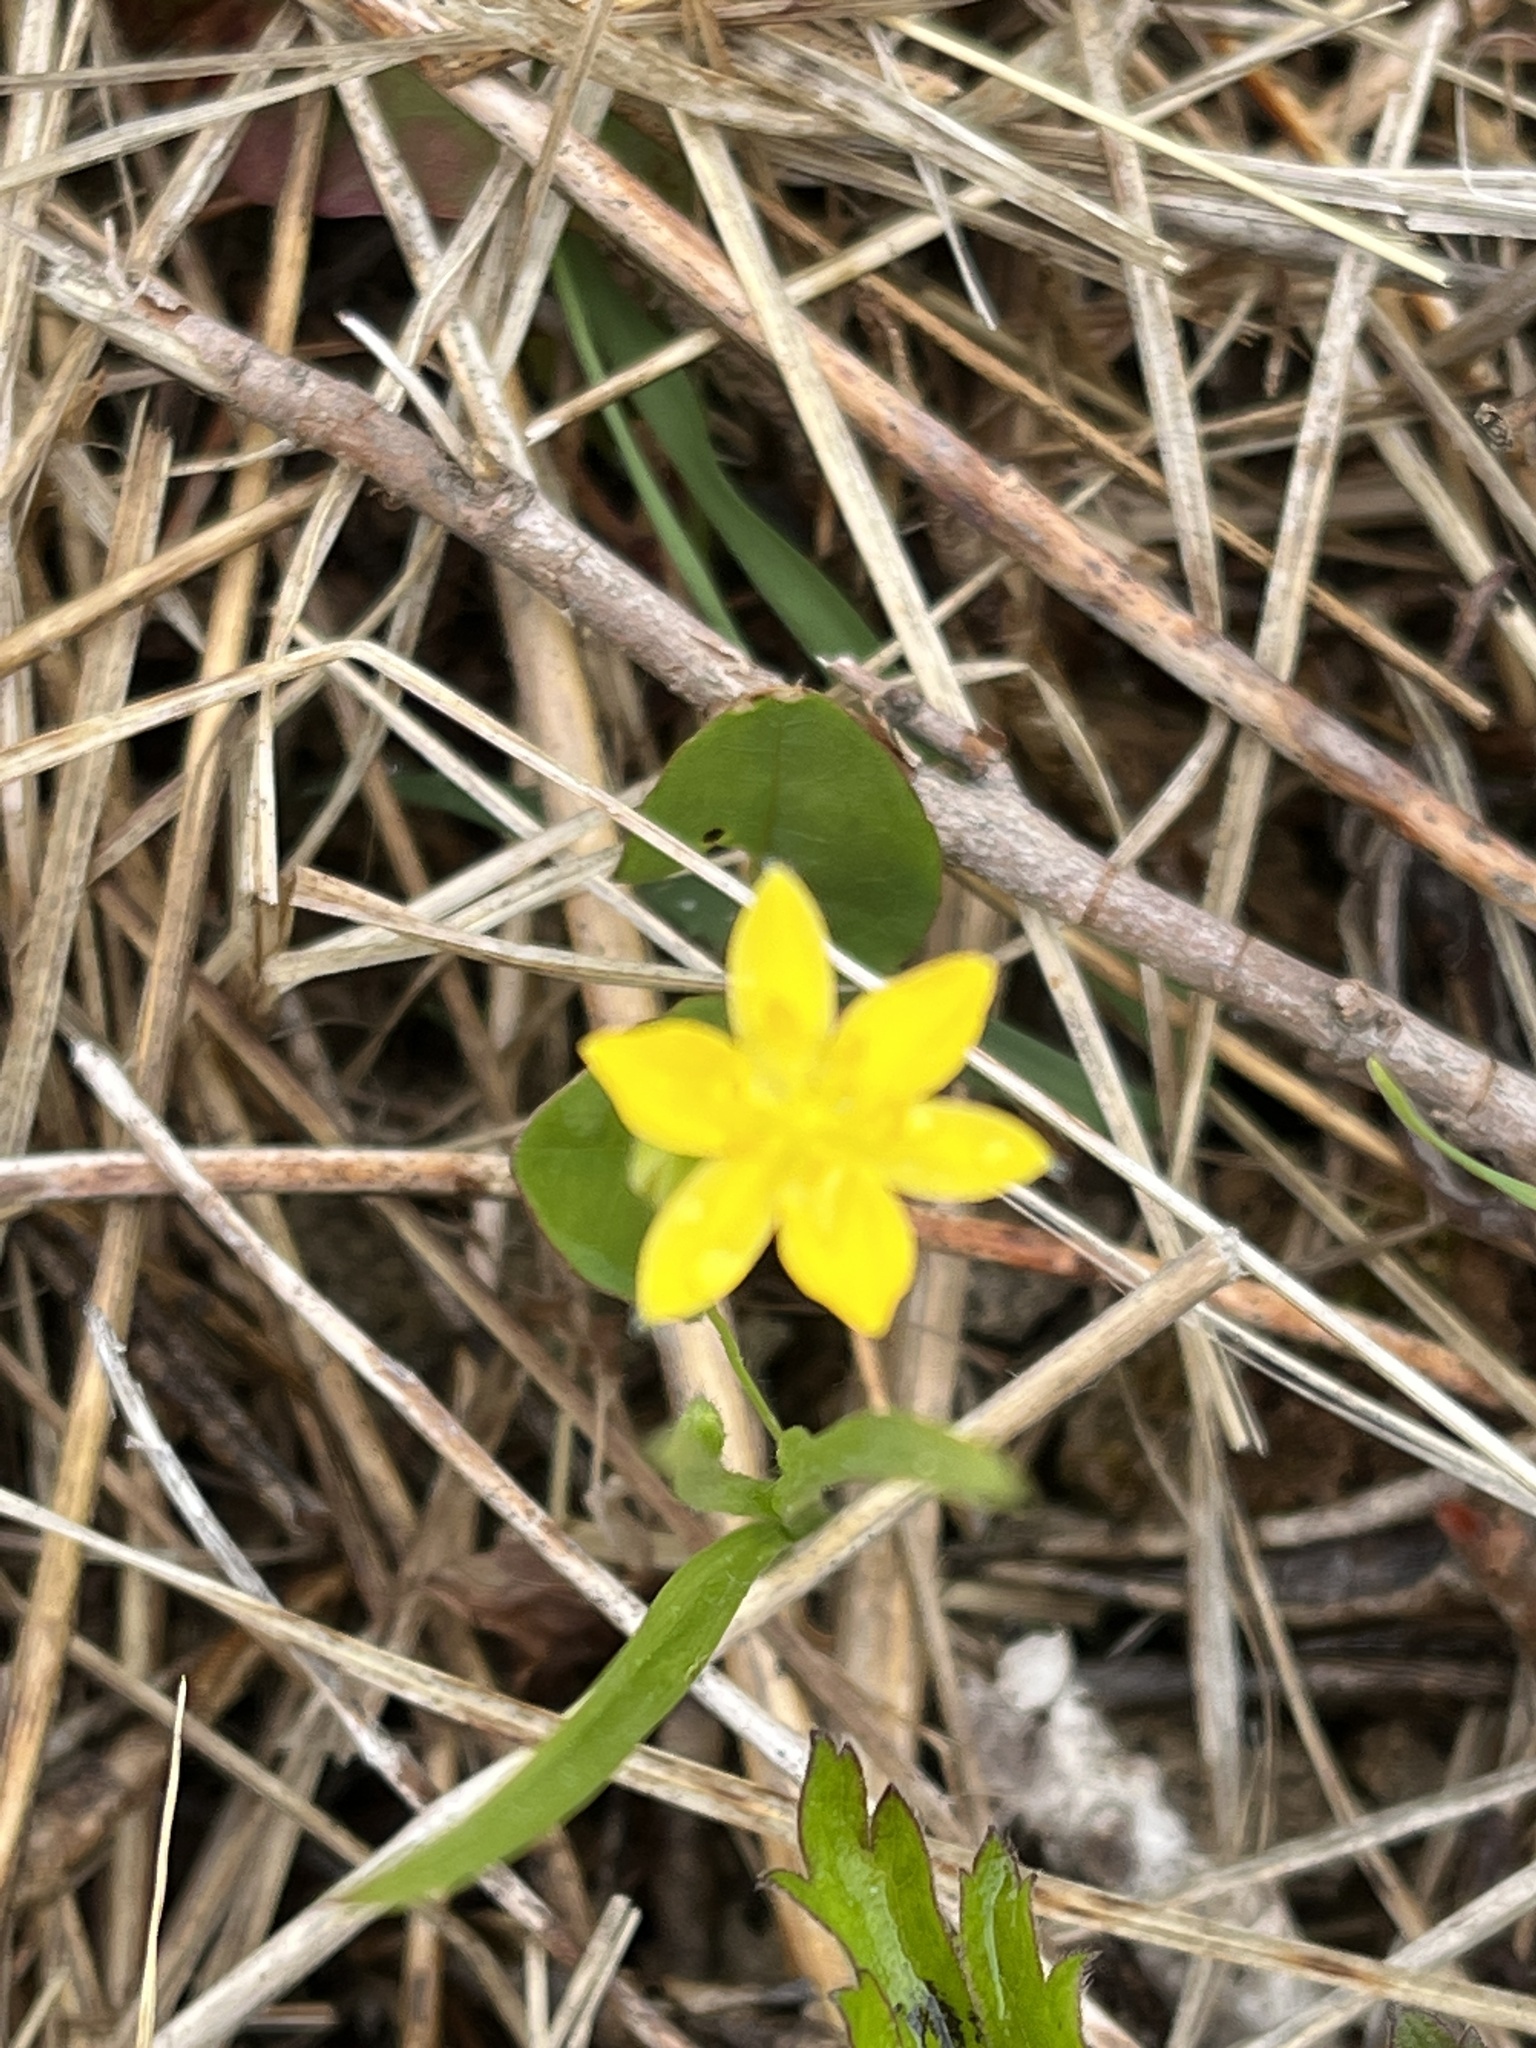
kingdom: Plantae
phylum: Tracheophyta
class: Liliopsida
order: Asparagales
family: Hypoxidaceae
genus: Hypoxis
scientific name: Hypoxis hirsuta
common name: Common goldstar
